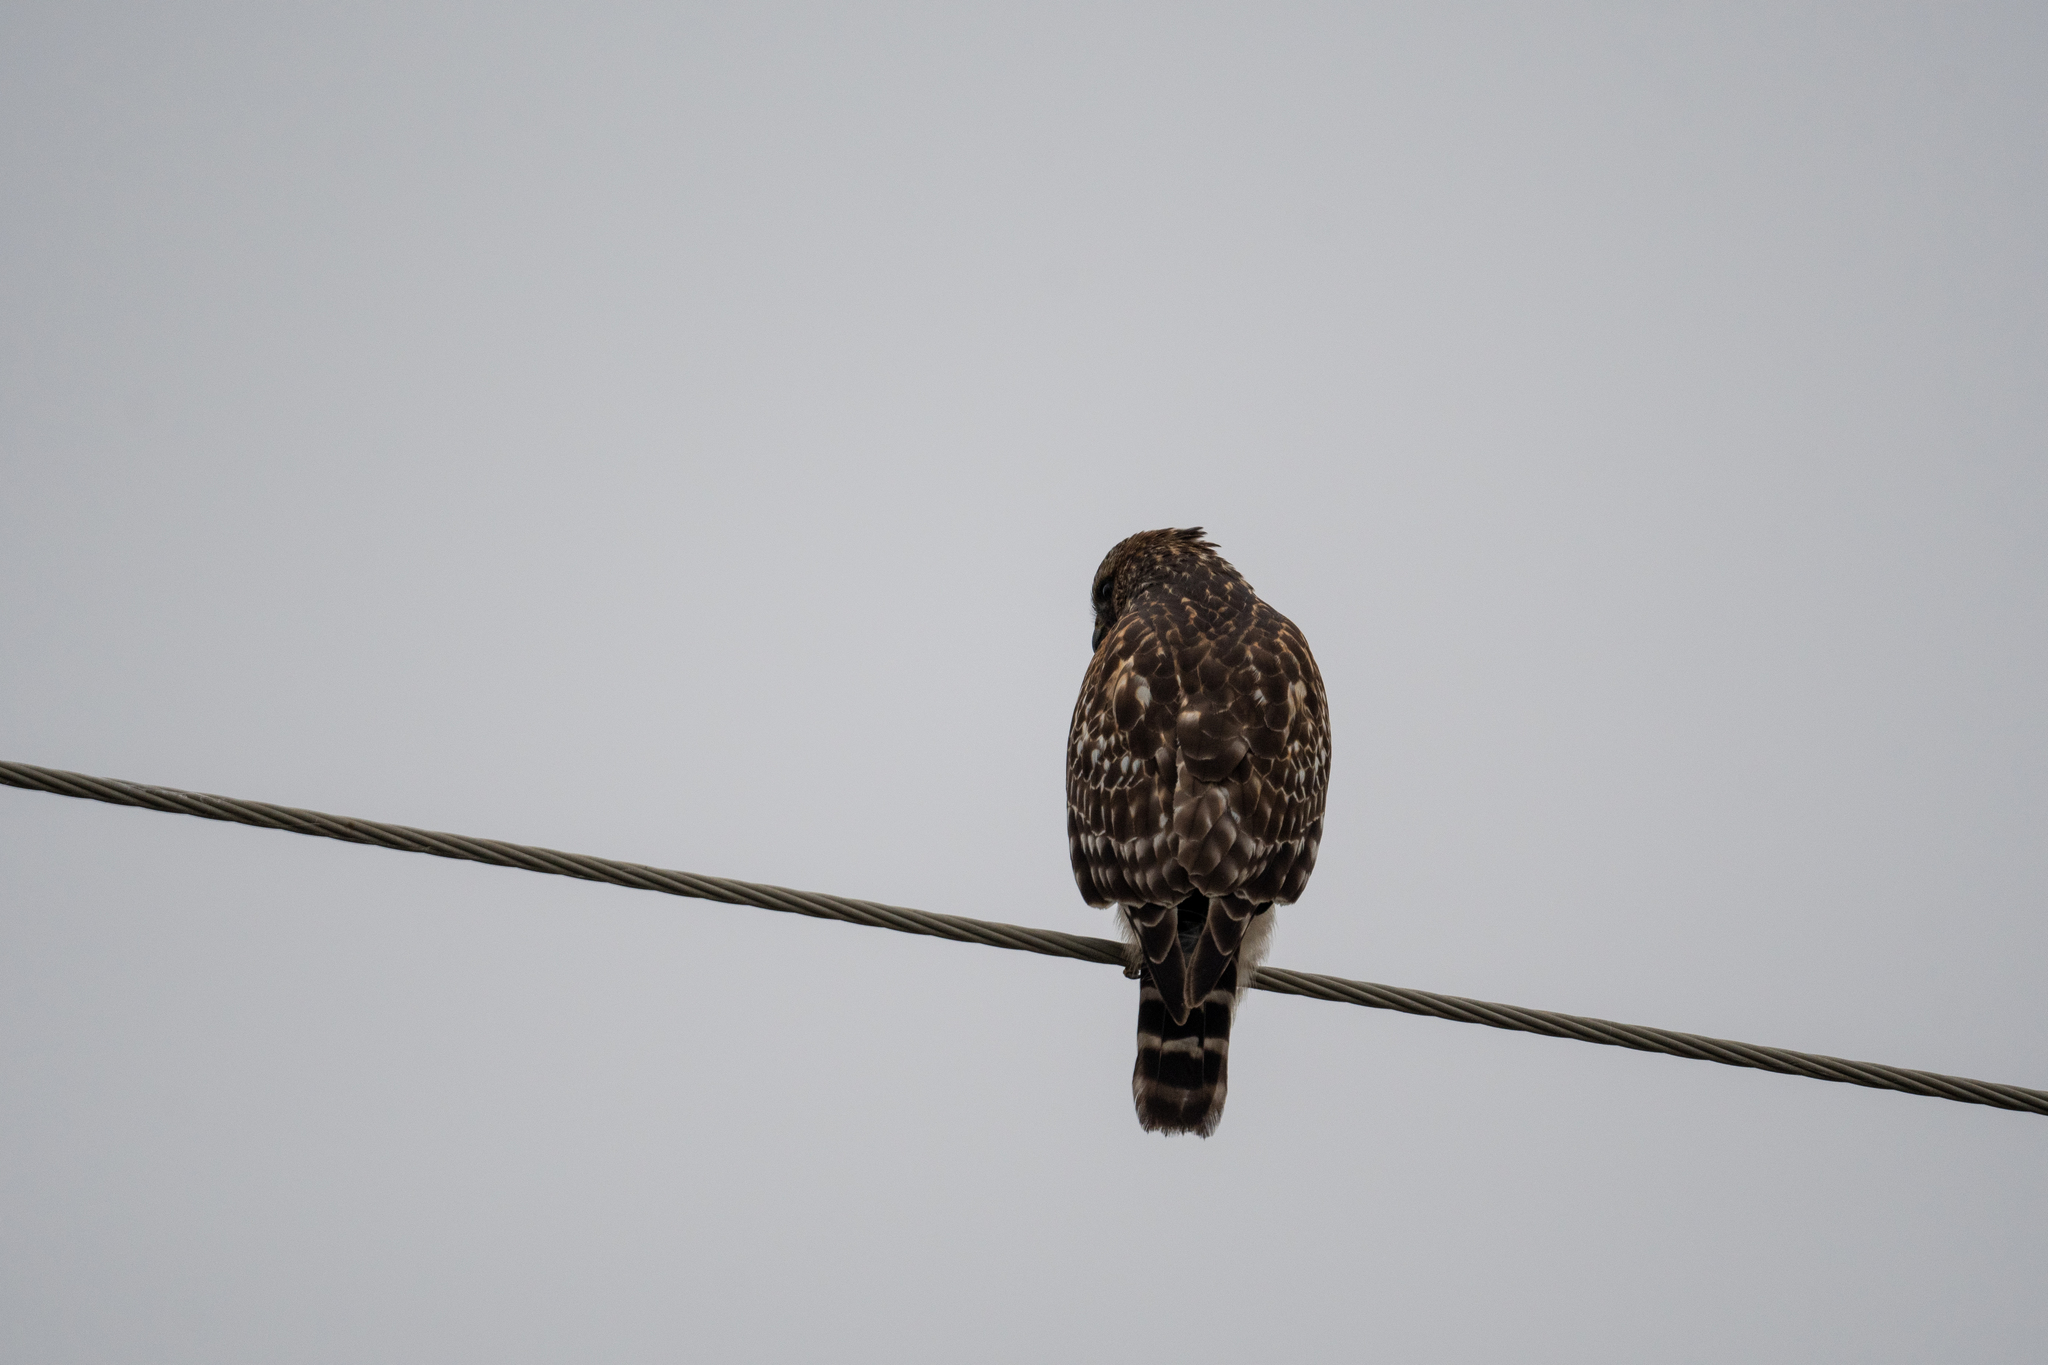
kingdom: Animalia
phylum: Chordata
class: Aves
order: Accipitriformes
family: Accipitridae
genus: Buteo
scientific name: Buteo lineatus
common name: Red-shouldered hawk
